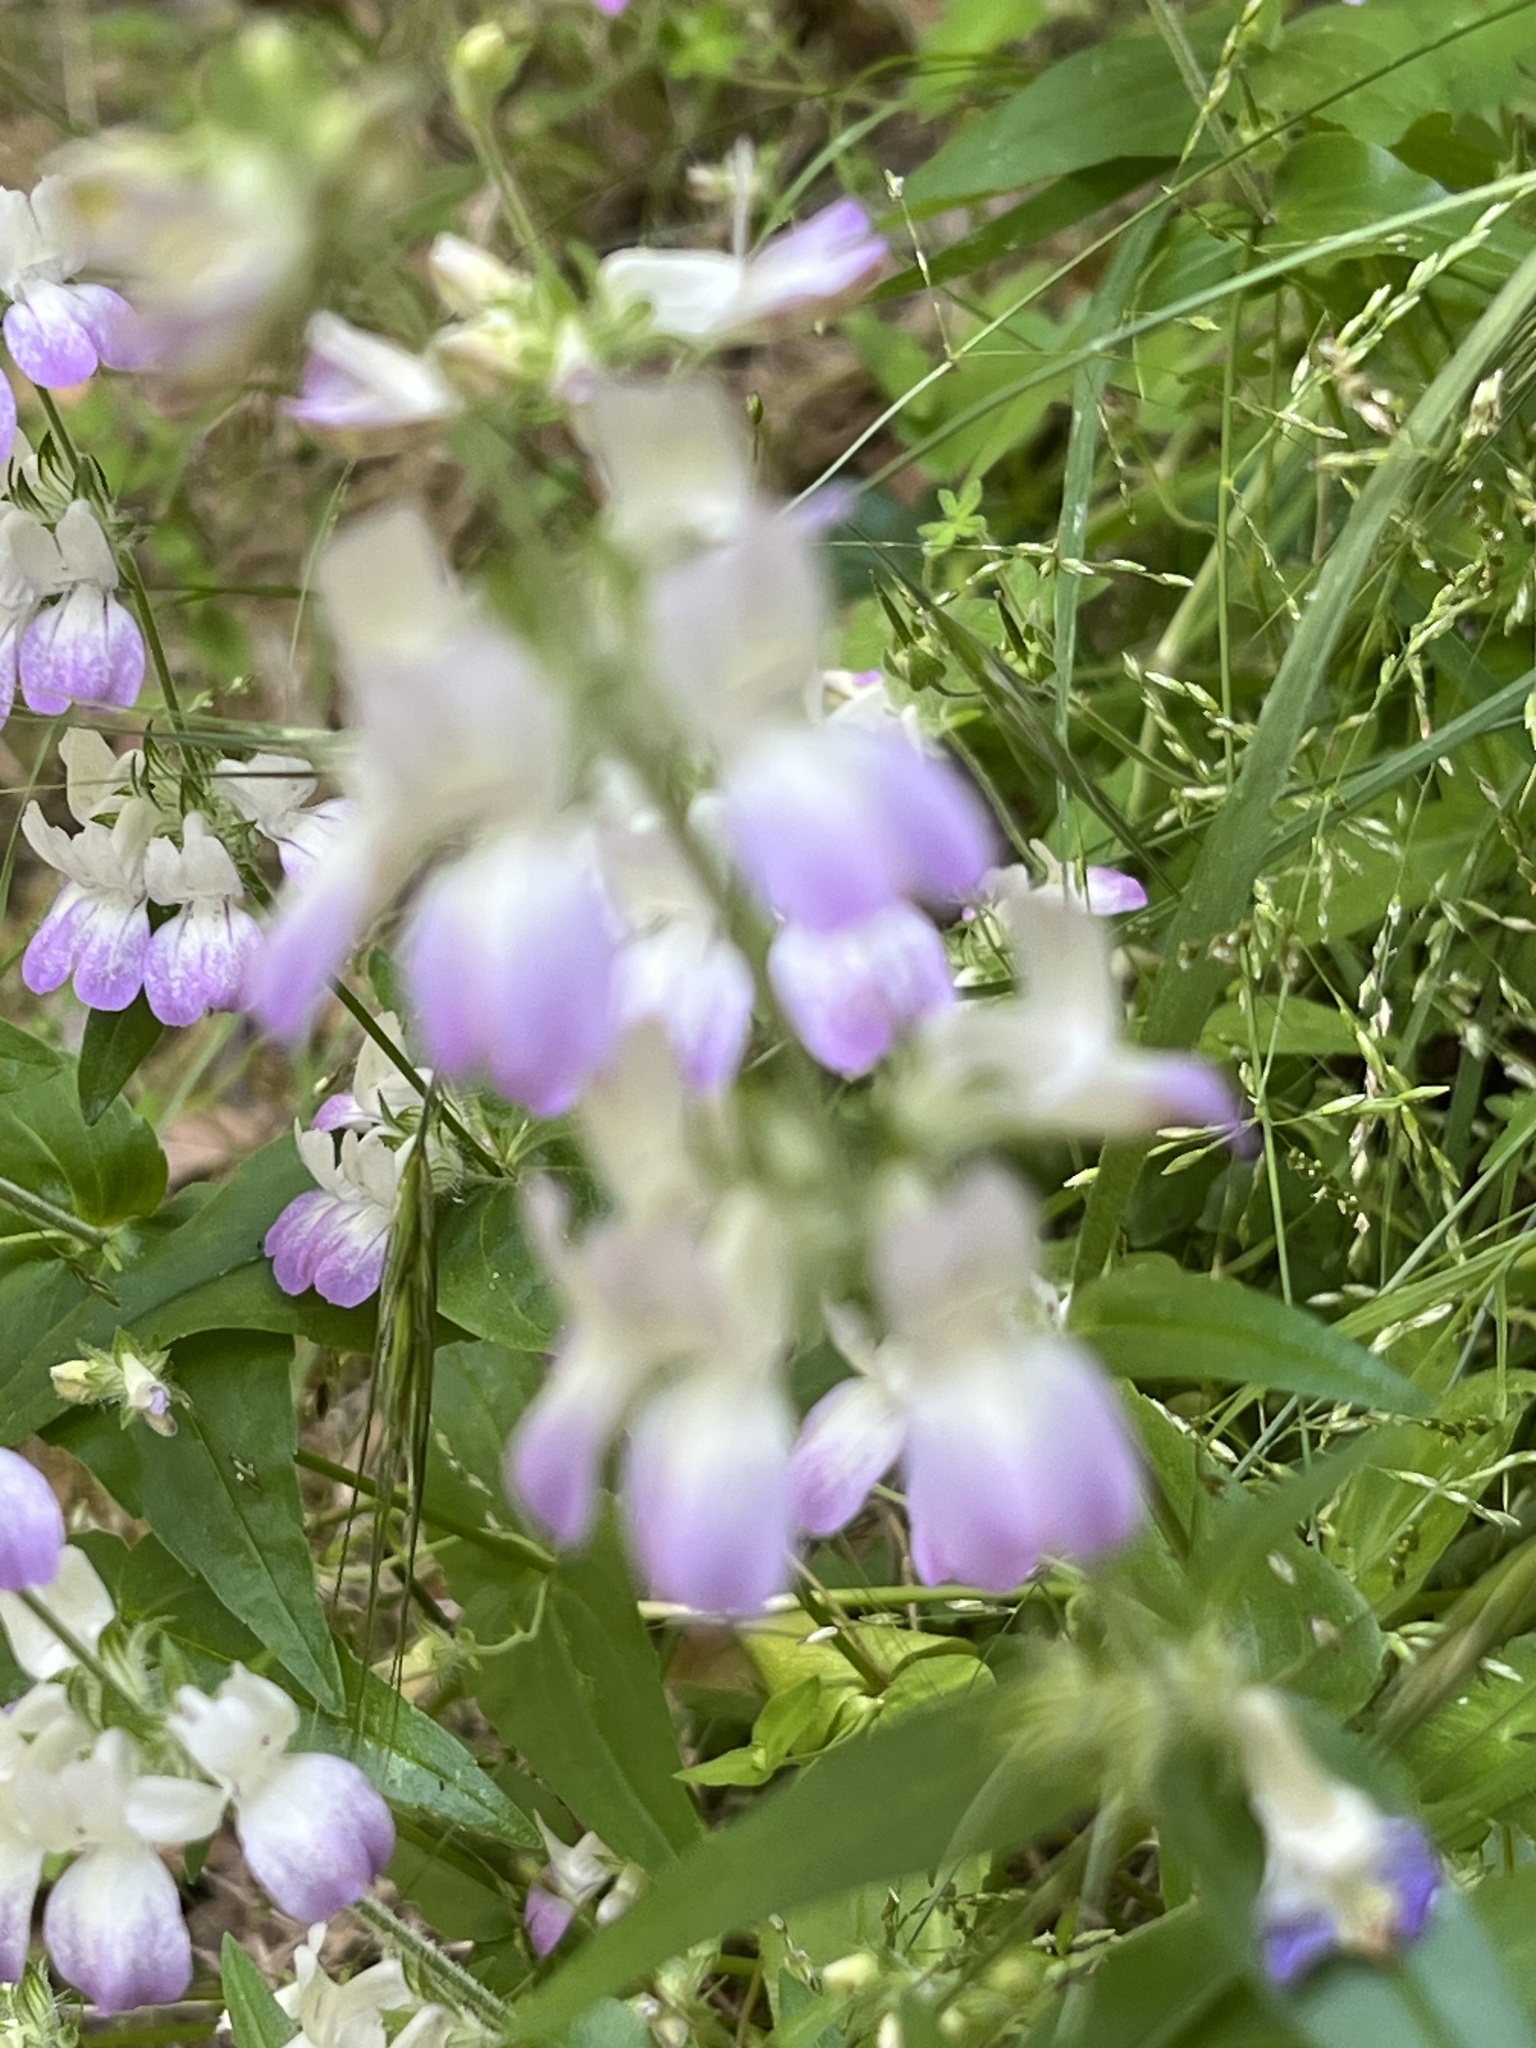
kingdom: Plantae
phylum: Tracheophyta
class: Magnoliopsida
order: Lamiales
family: Plantaginaceae
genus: Collinsia
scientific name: Collinsia heterophylla
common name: Chinese-houses
